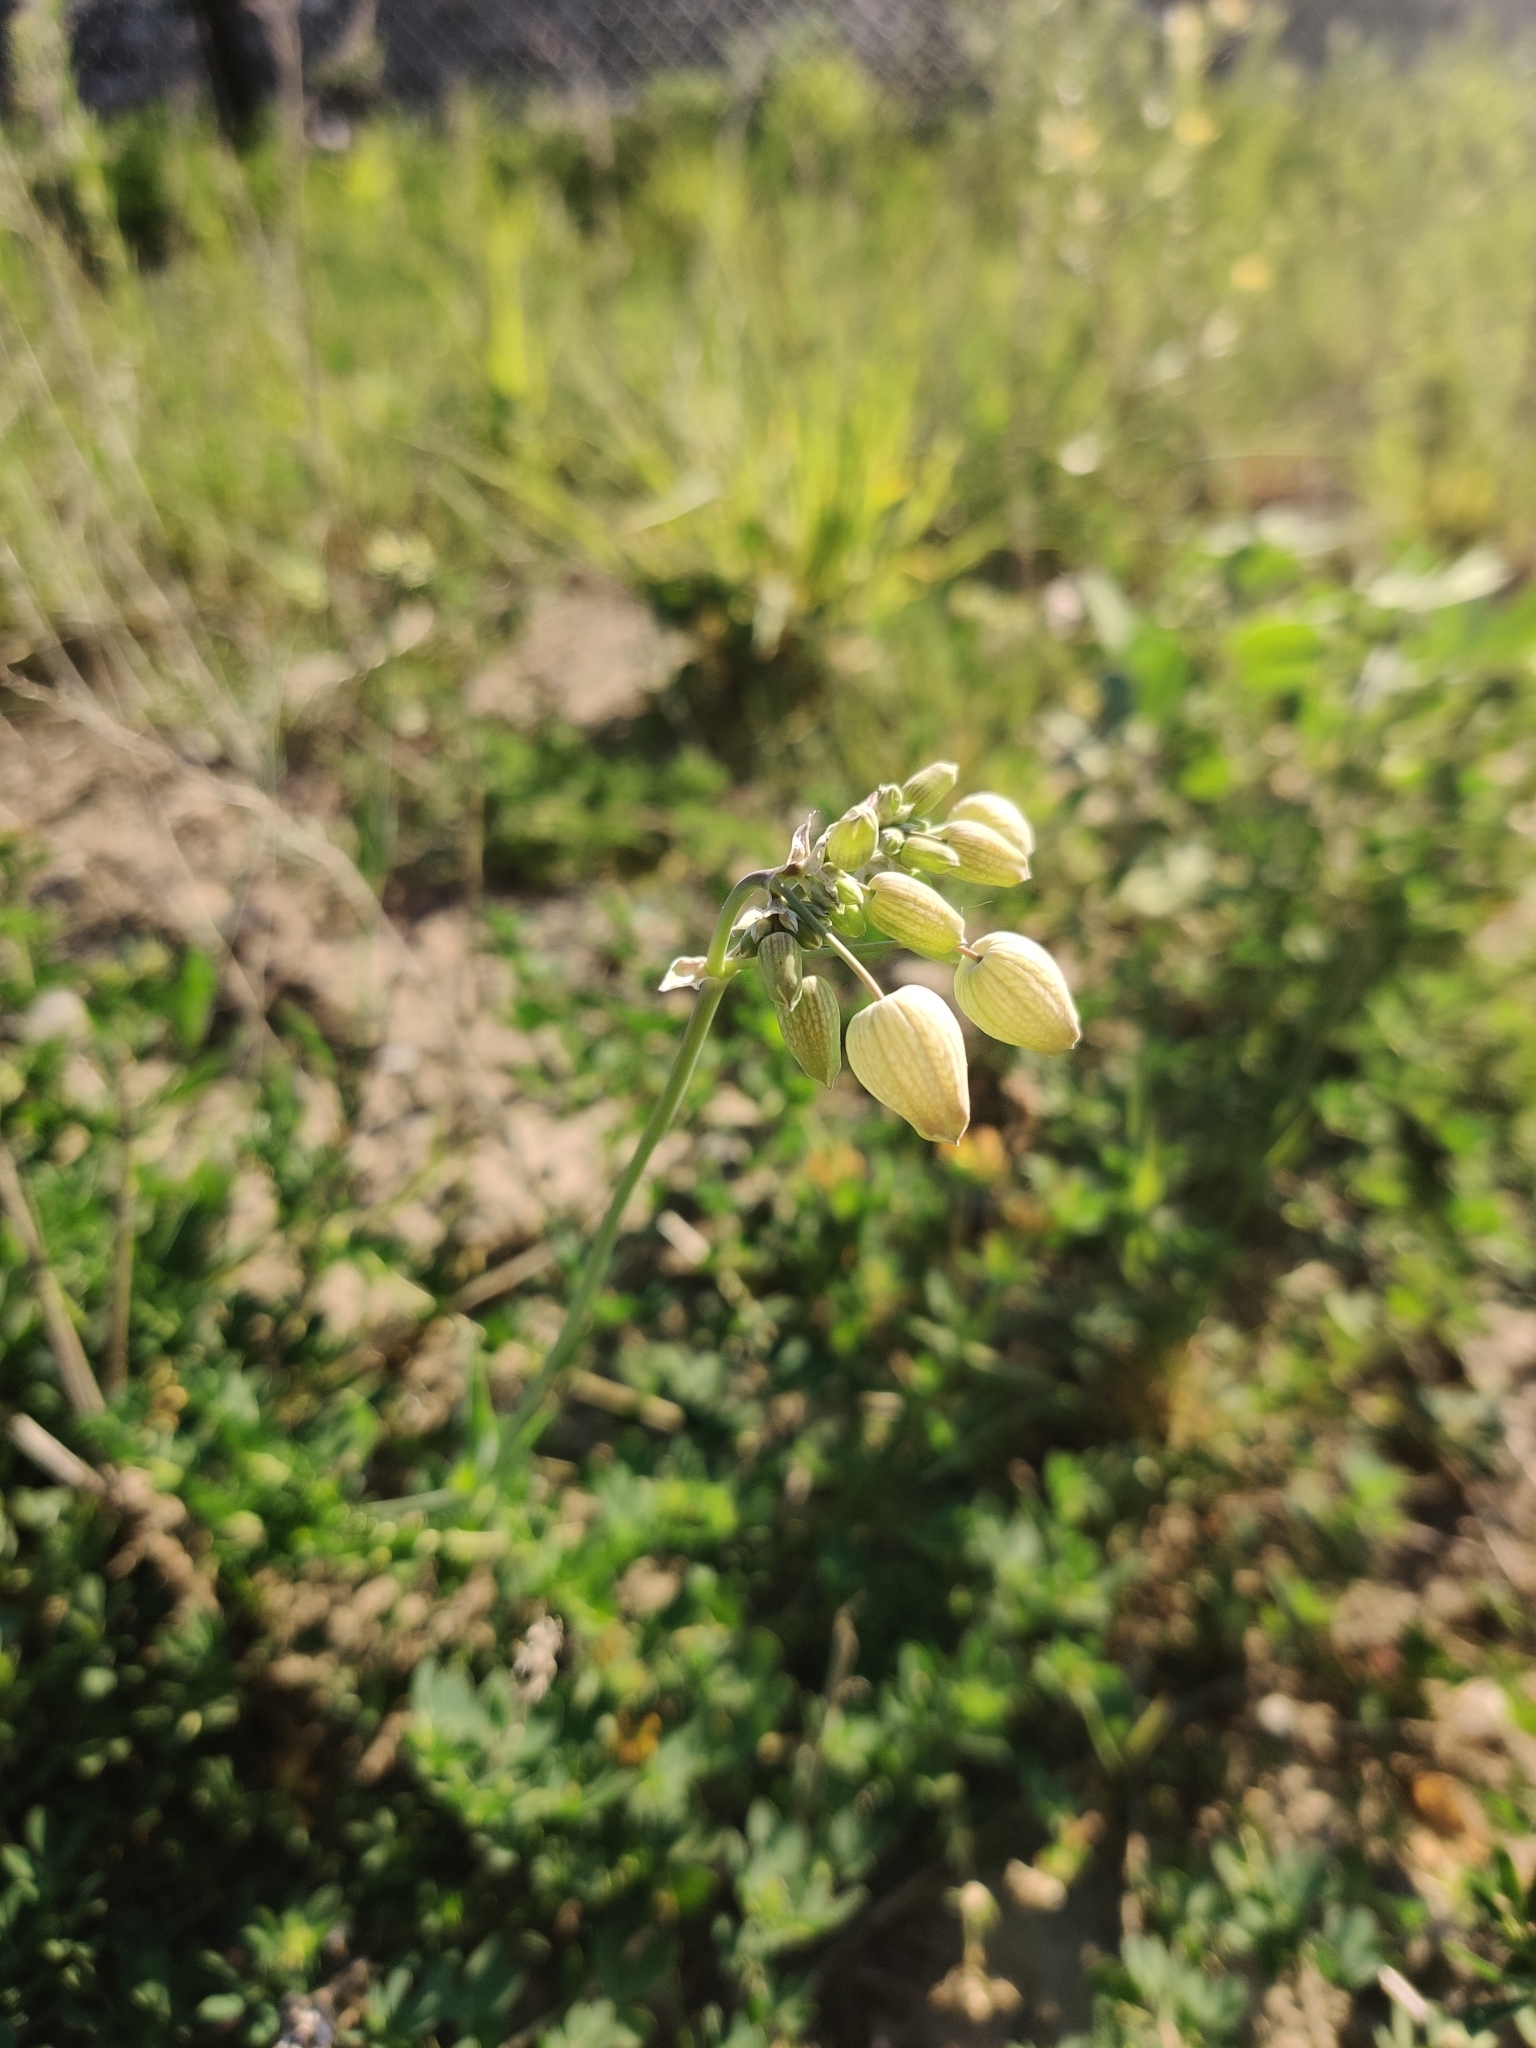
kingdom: Plantae
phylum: Tracheophyta
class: Magnoliopsida
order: Caryophyllales
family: Caryophyllaceae
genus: Silene
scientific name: Silene vulgaris
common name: Bladder campion
